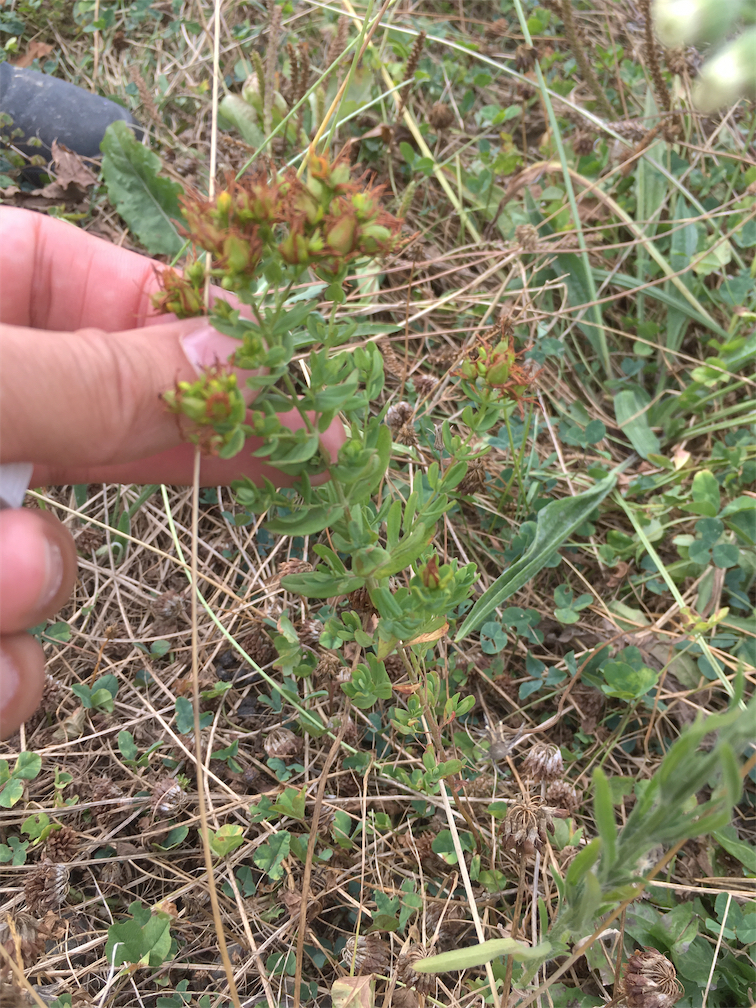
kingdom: Plantae
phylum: Tracheophyta
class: Magnoliopsida
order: Malpighiales
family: Hypericaceae
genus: Hypericum
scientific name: Hypericum perforatum
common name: Common st. johnswort
